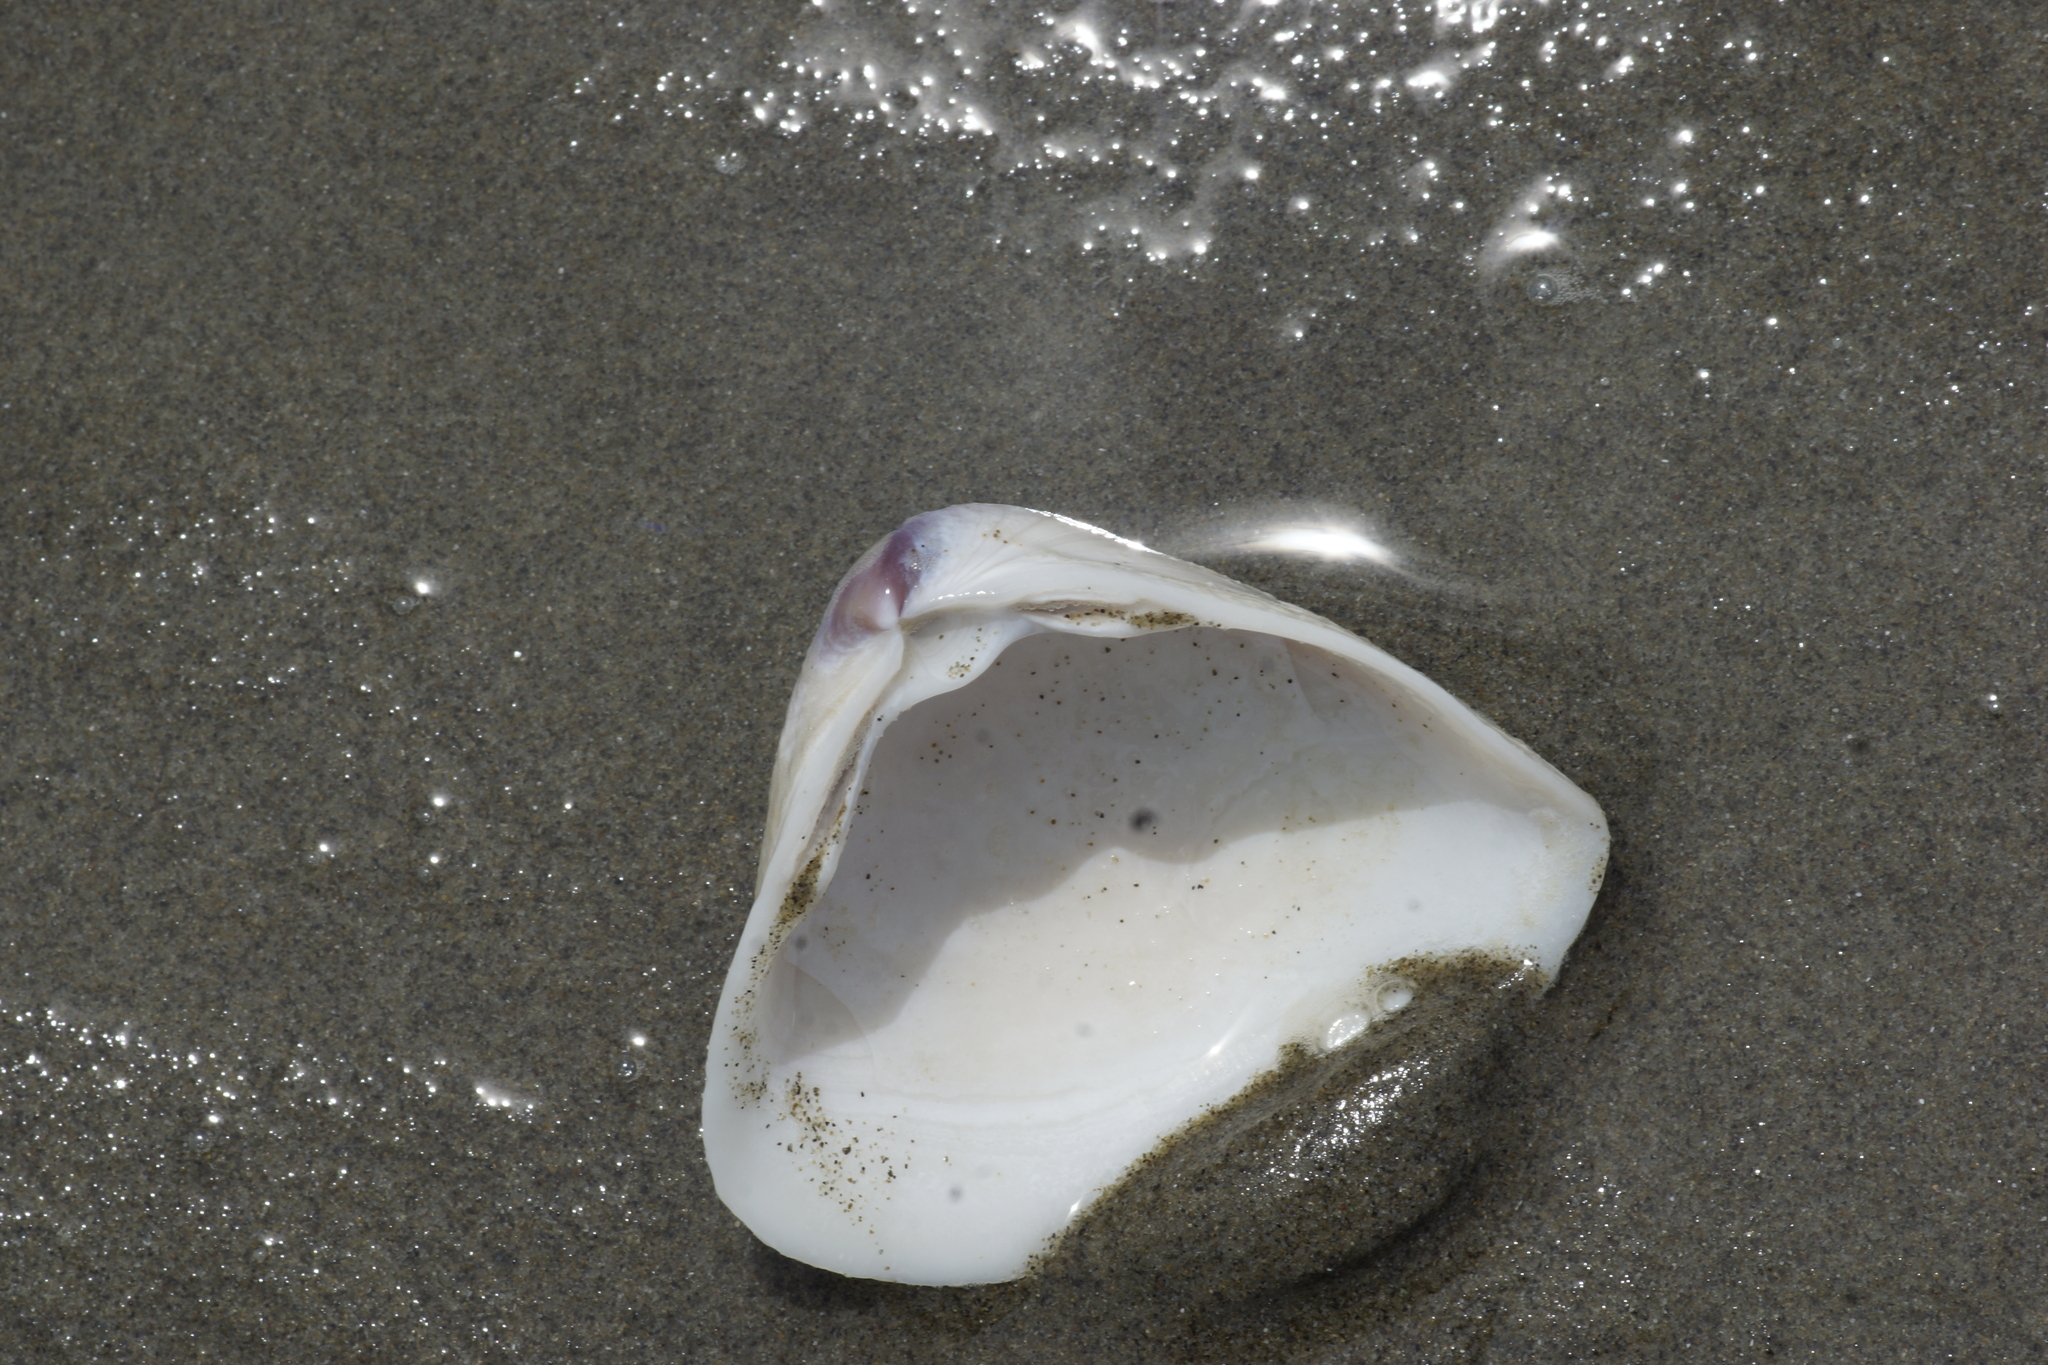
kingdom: Animalia
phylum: Mollusca
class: Bivalvia
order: Venerida
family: Mactridae
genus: Crassula
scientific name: Crassula aequilatera
